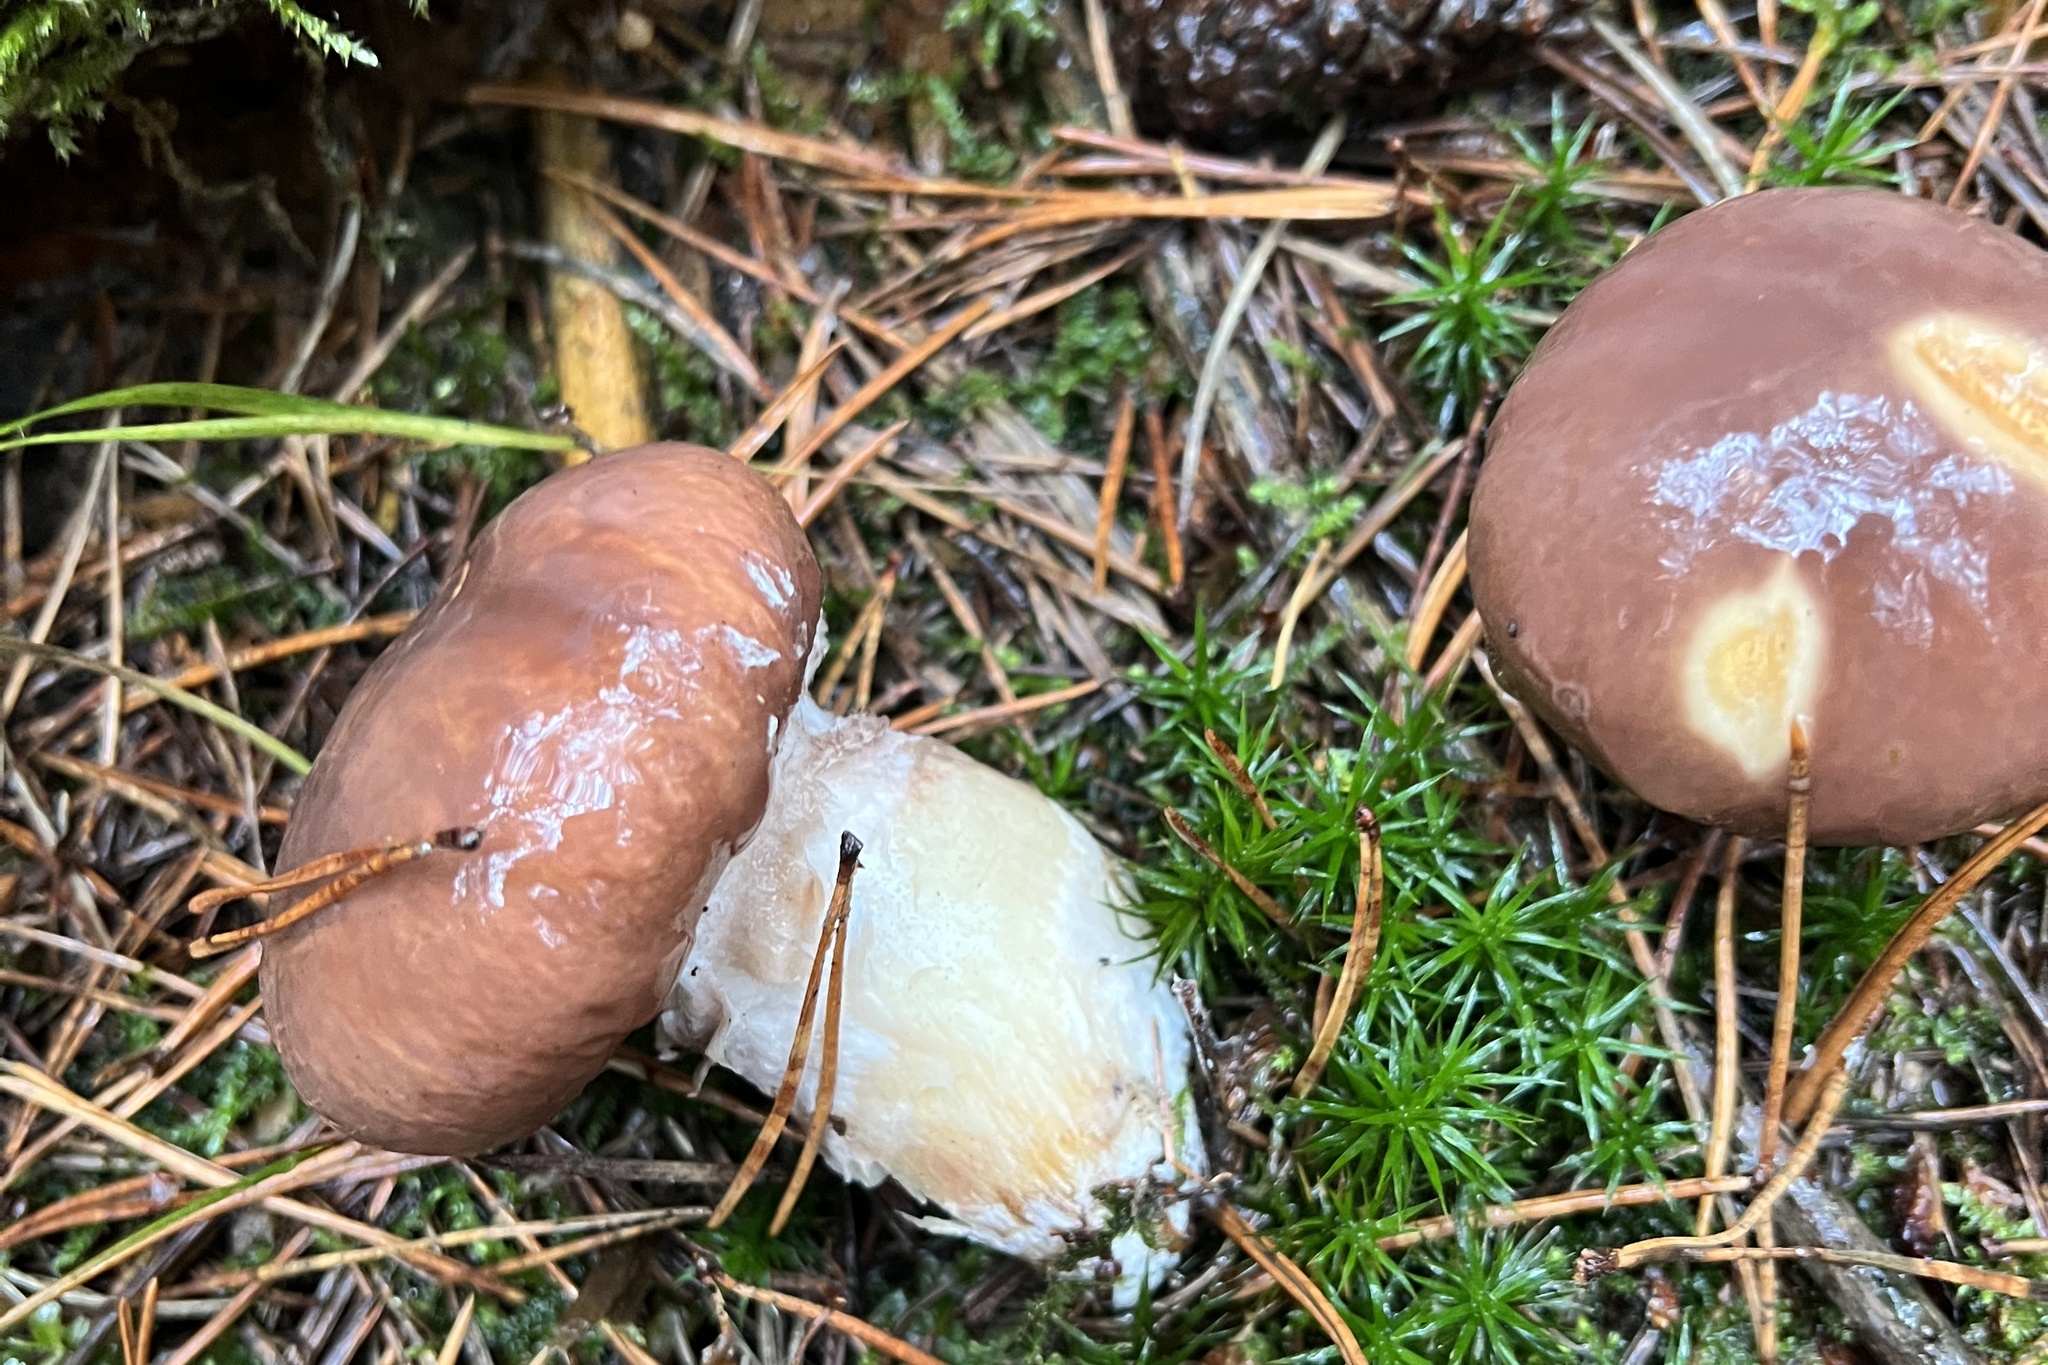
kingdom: Fungi
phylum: Basidiomycota
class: Agaricomycetes
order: Boletales
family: Suillaceae
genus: Suillus
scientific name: Suillus luteus
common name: Slippery jack
